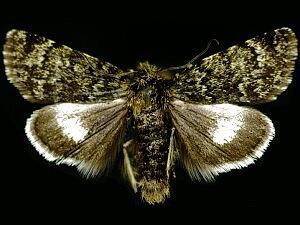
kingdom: Animalia
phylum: Arthropoda
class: Insecta
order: Lepidoptera
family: Noctuidae
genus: Sympistis
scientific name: Sympistis nigrita
